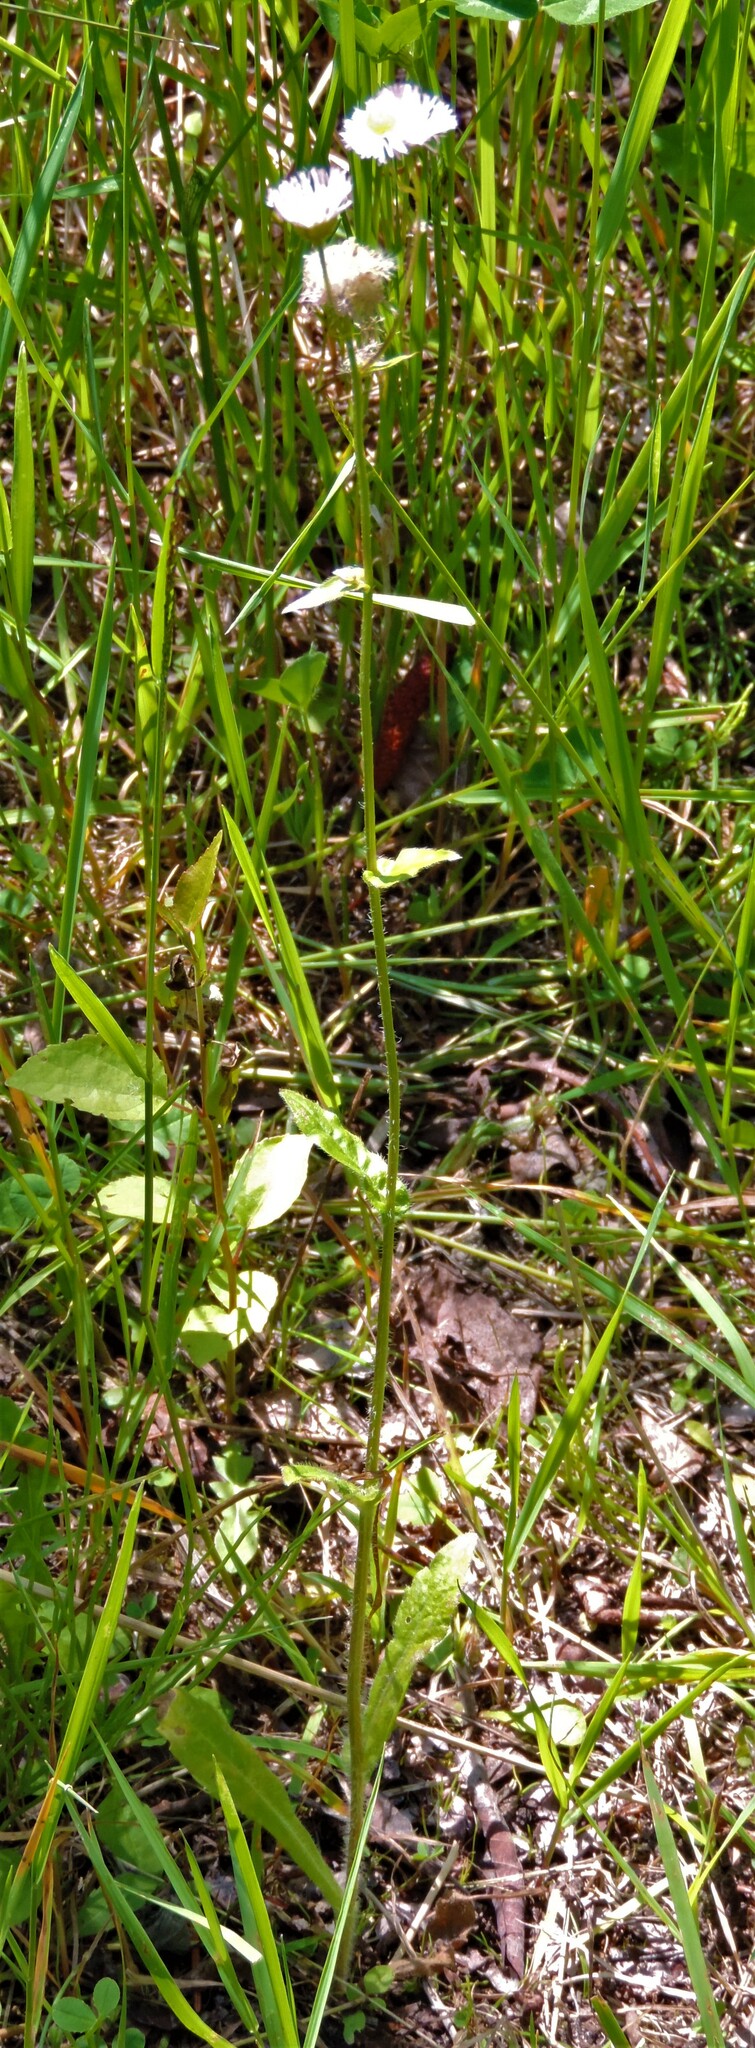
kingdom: Plantae
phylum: Tracheophyta
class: Magnoliopsida
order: Asterales
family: Asteraceae
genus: Erigeron
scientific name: Erigeron philadelphicus
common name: Robin's-plantain
